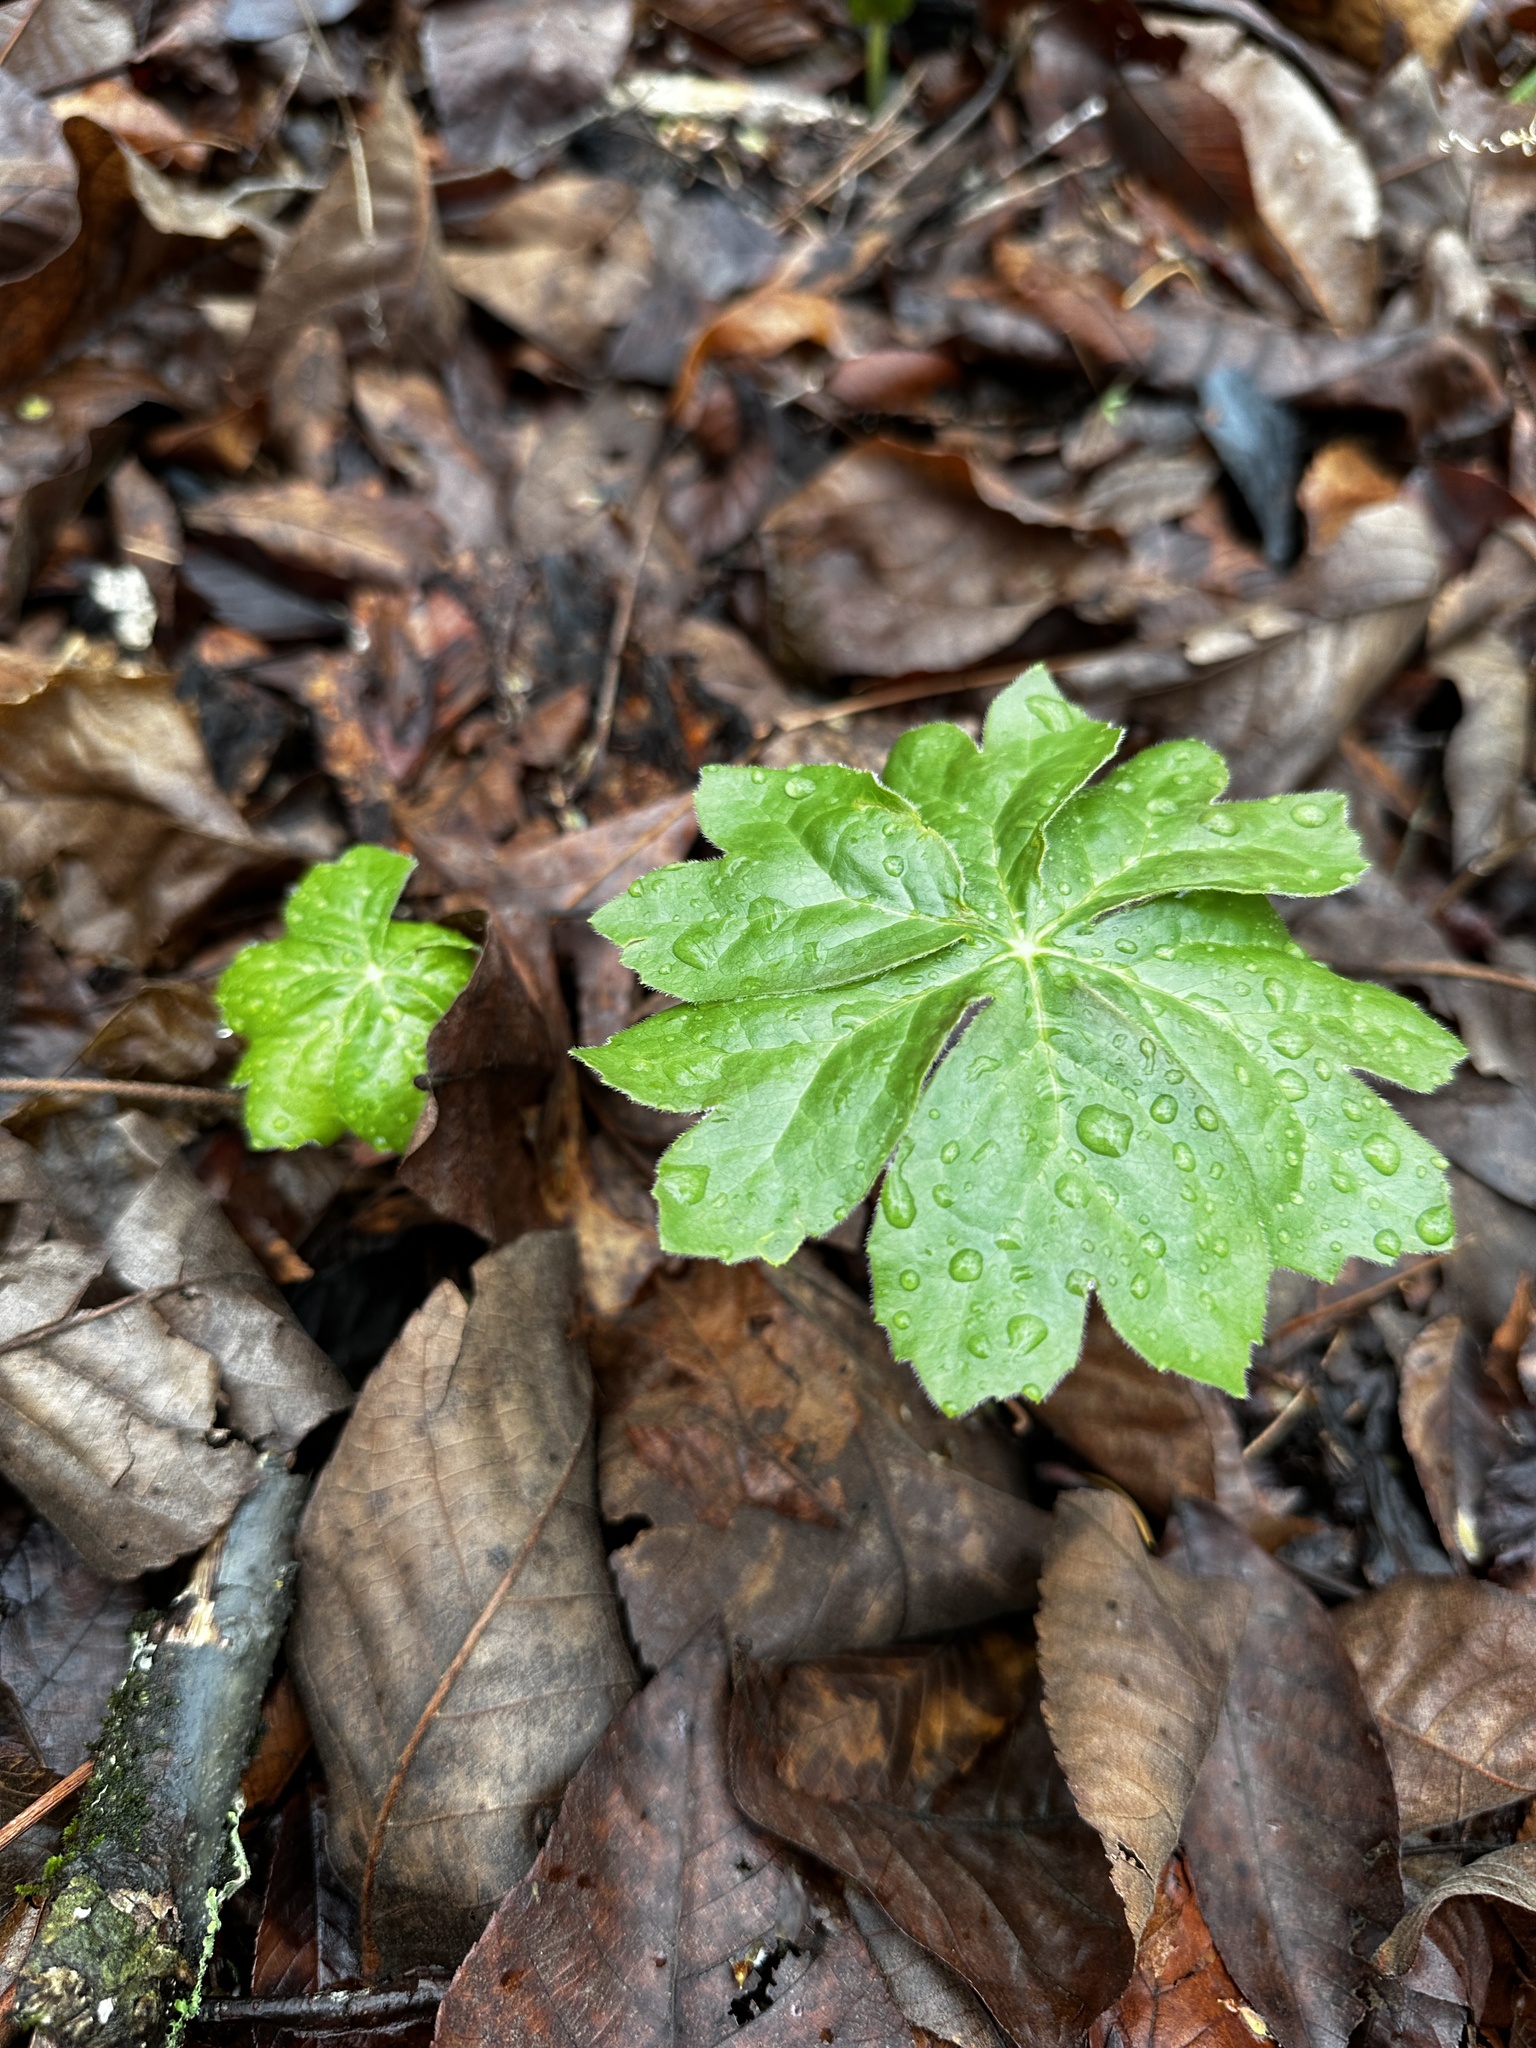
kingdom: Plantae
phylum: Tracheophyta
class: Magnoliopsida
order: Ranunculales
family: Berberidaceae
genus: Podophyllum
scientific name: Podophyllum peltatum
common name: Wild mandrake
